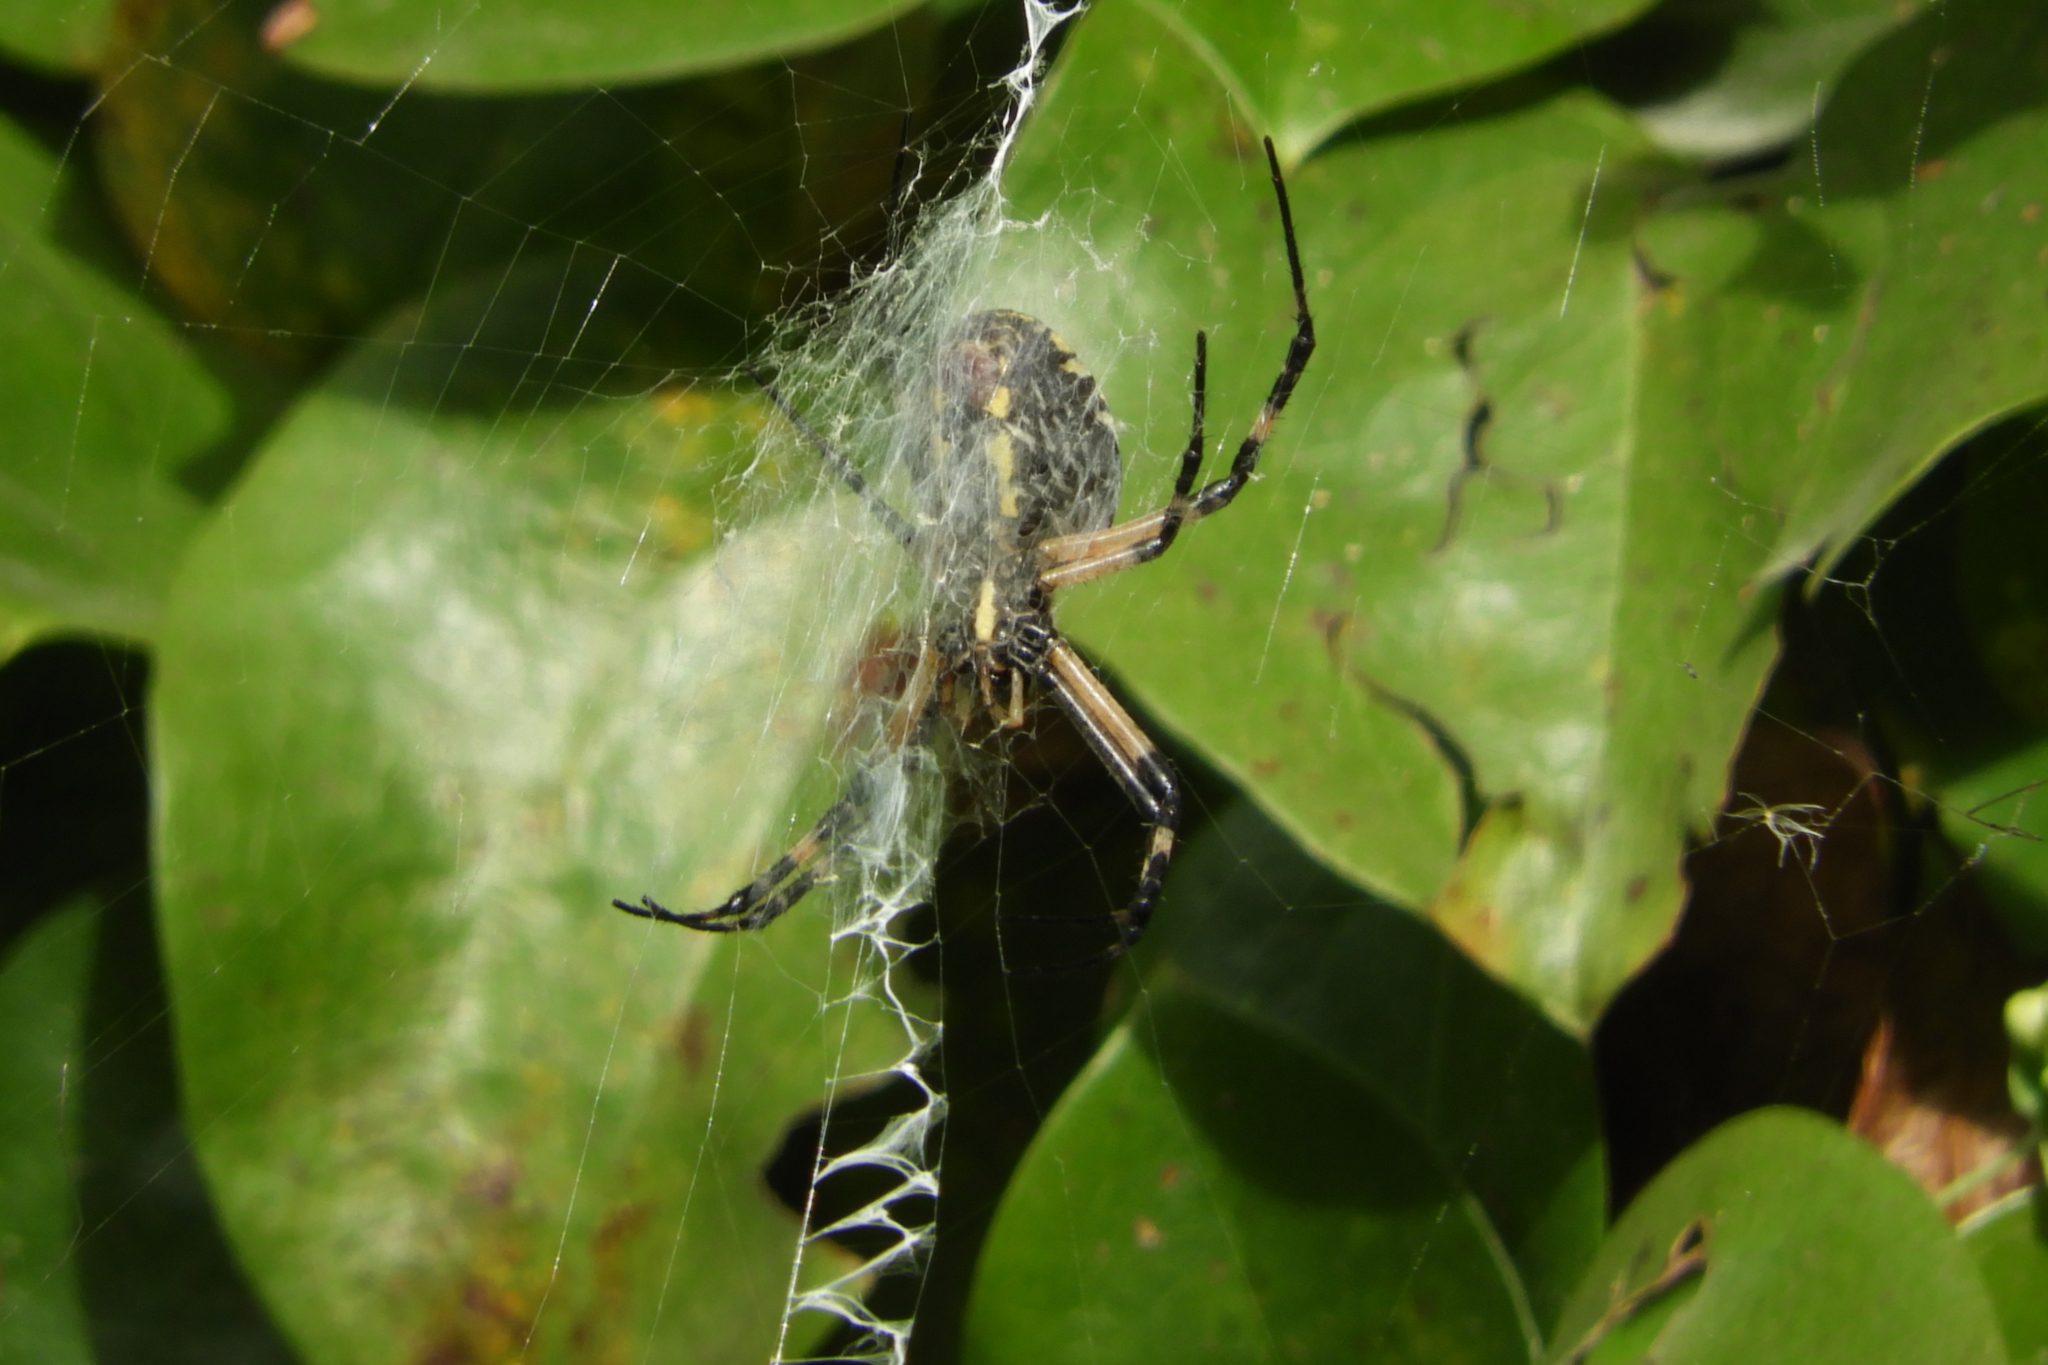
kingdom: Animalia
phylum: Arthropoda
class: Arachnida
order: Araneae
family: Araneidae
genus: Argiope
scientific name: Argiope aurantia
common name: Orb weavers
